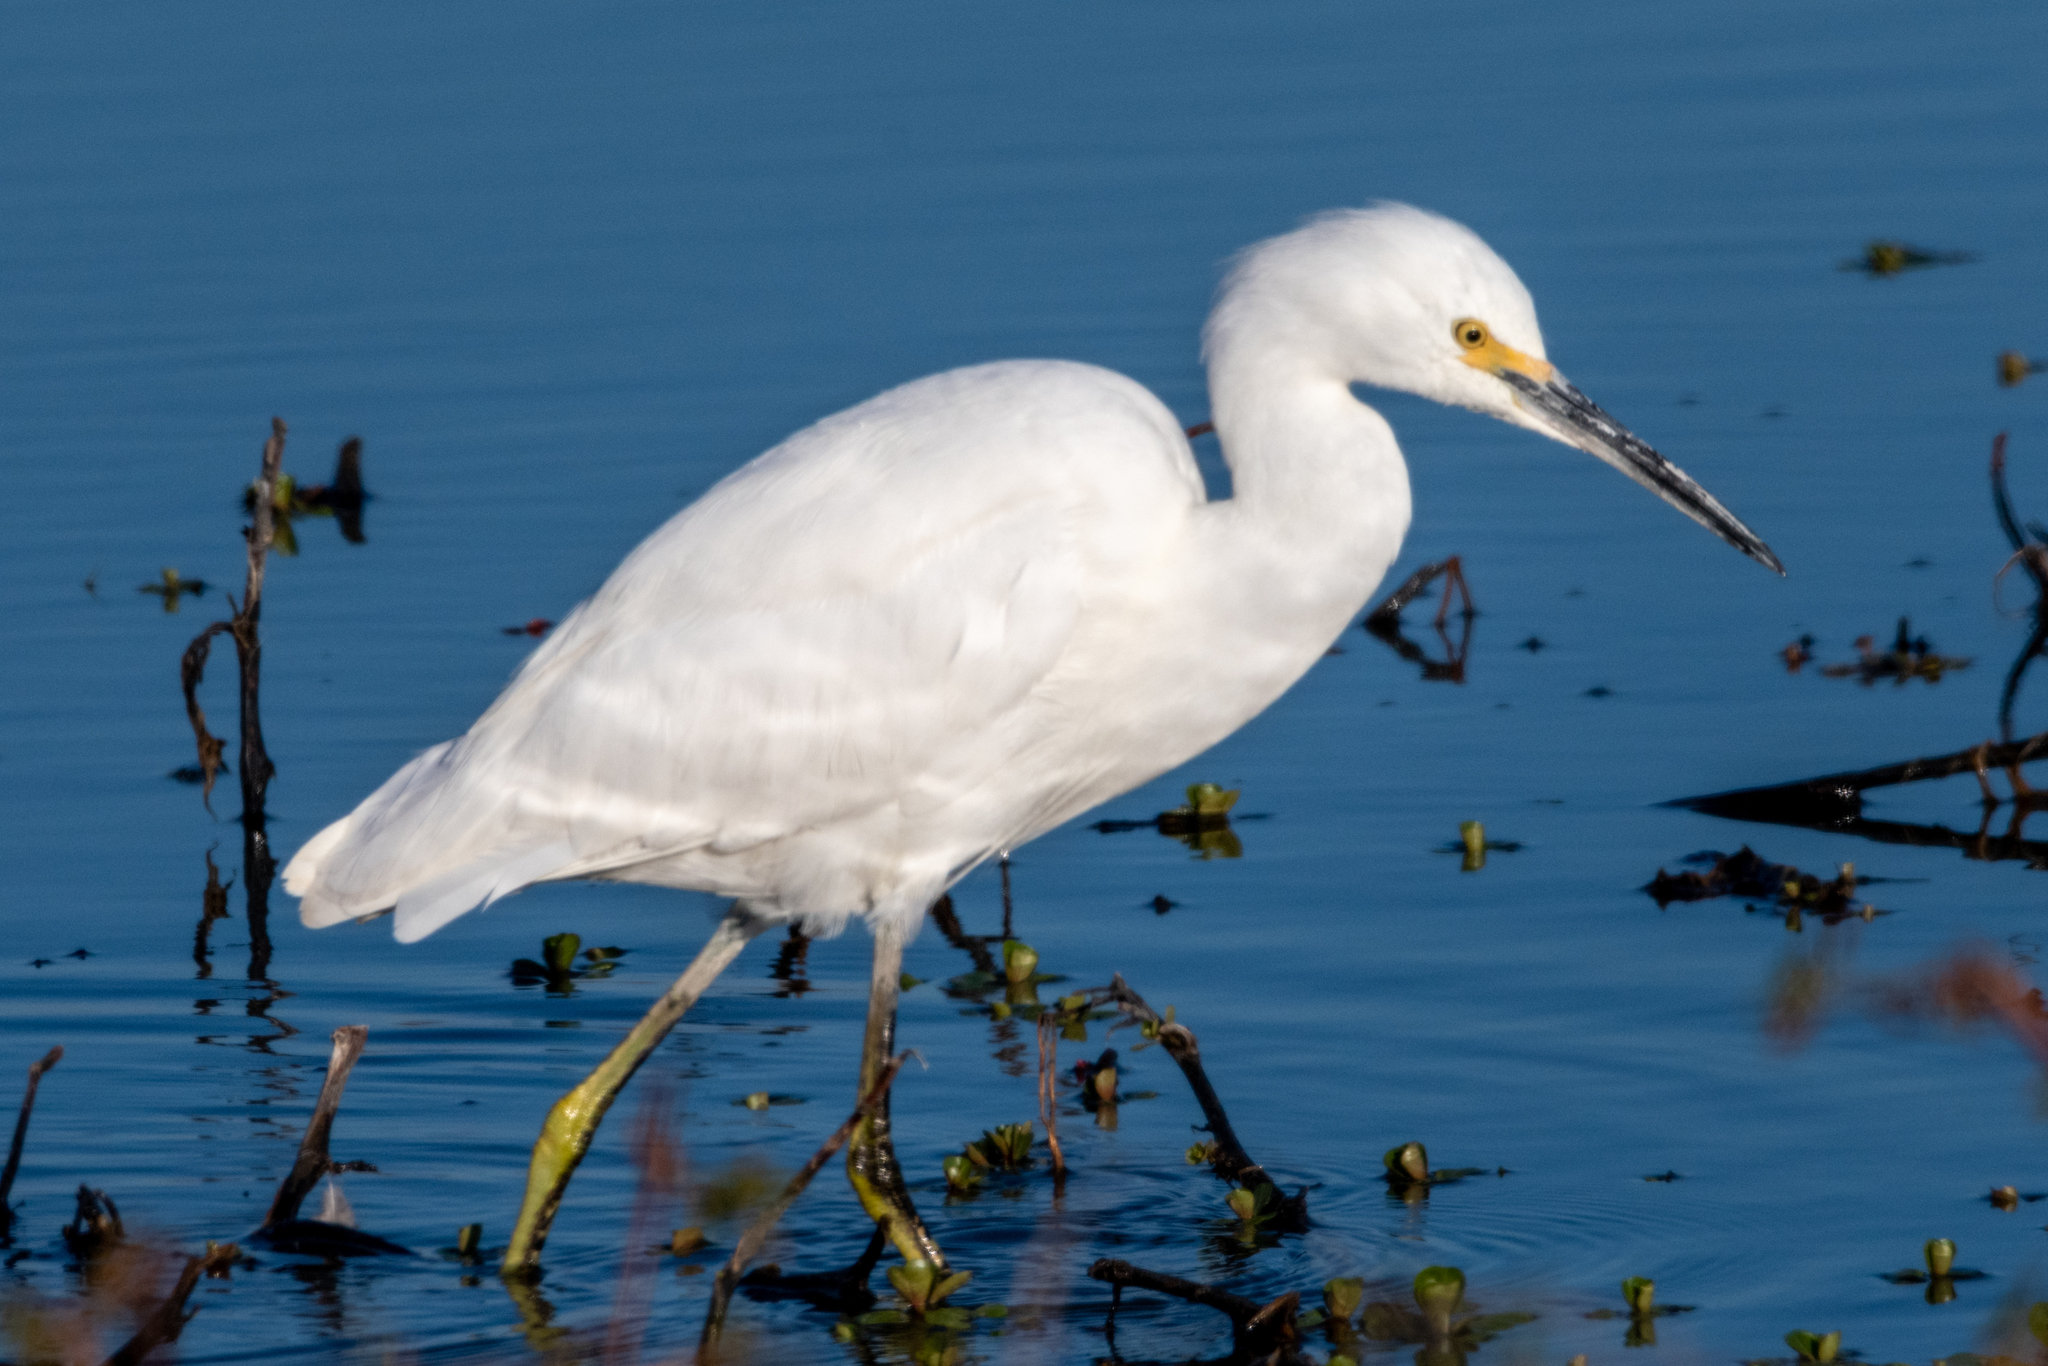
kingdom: Animalia
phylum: Chordata
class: Aves
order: Pelecaniformes
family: Ardeidae
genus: Egretta
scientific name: Egretta thula
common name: Snowy egret
